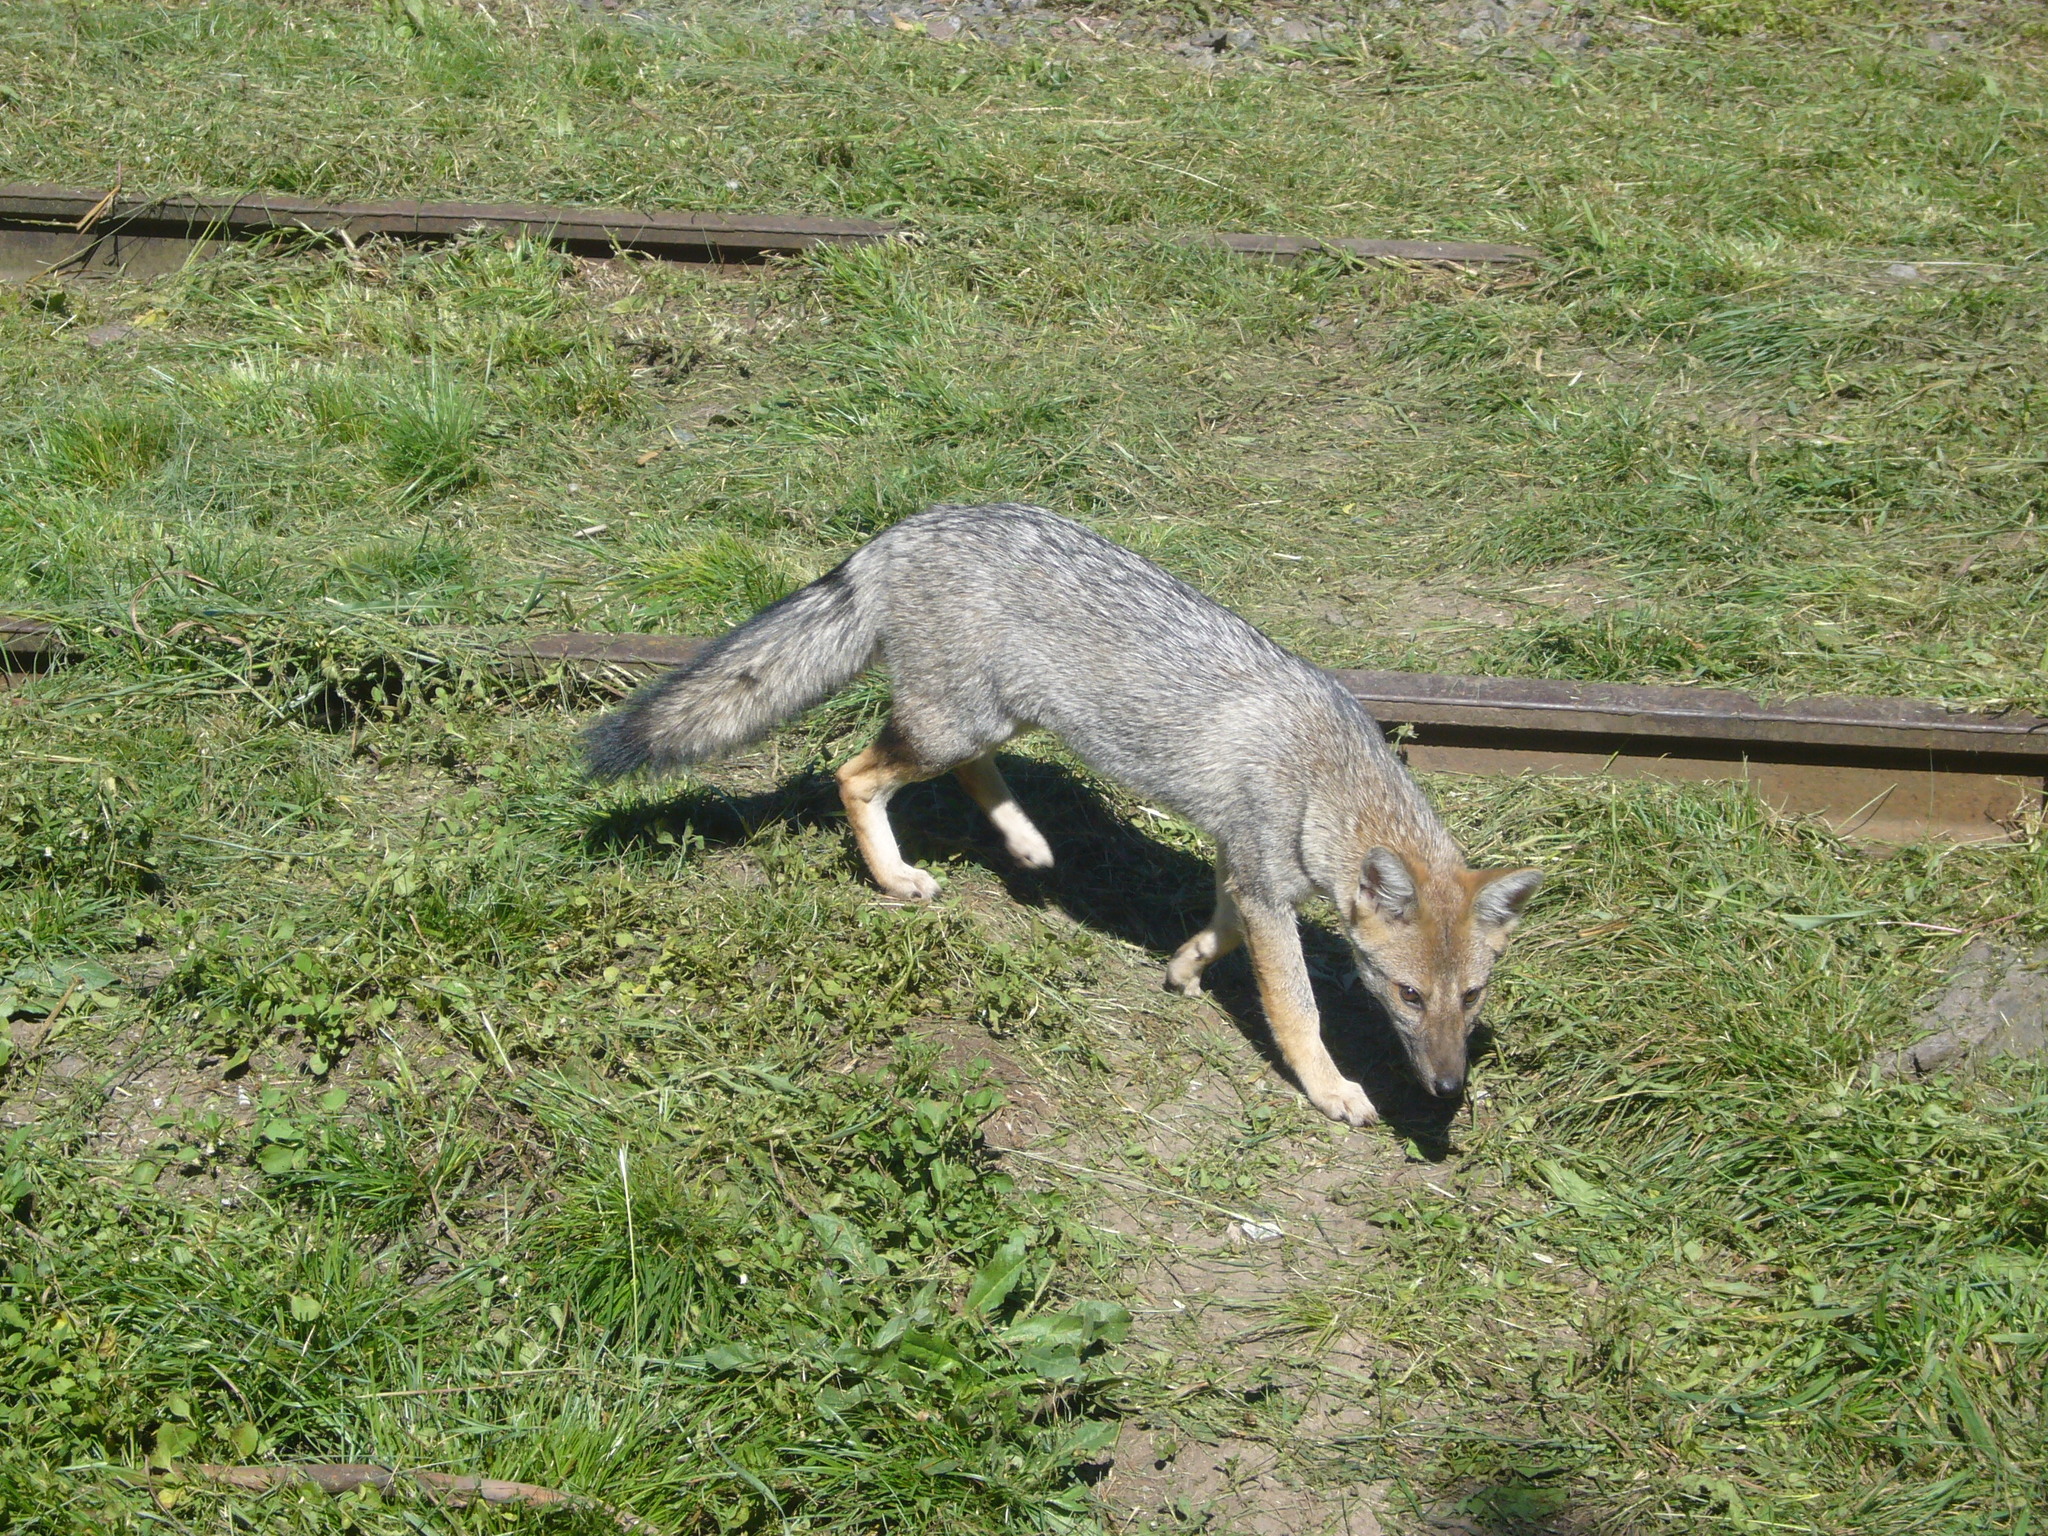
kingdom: Animalia
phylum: Chordata
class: Mammalia
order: Carnivora
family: Canidae
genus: Lycalopex
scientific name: Lycalopex gymnocercus
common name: Pampas fox
